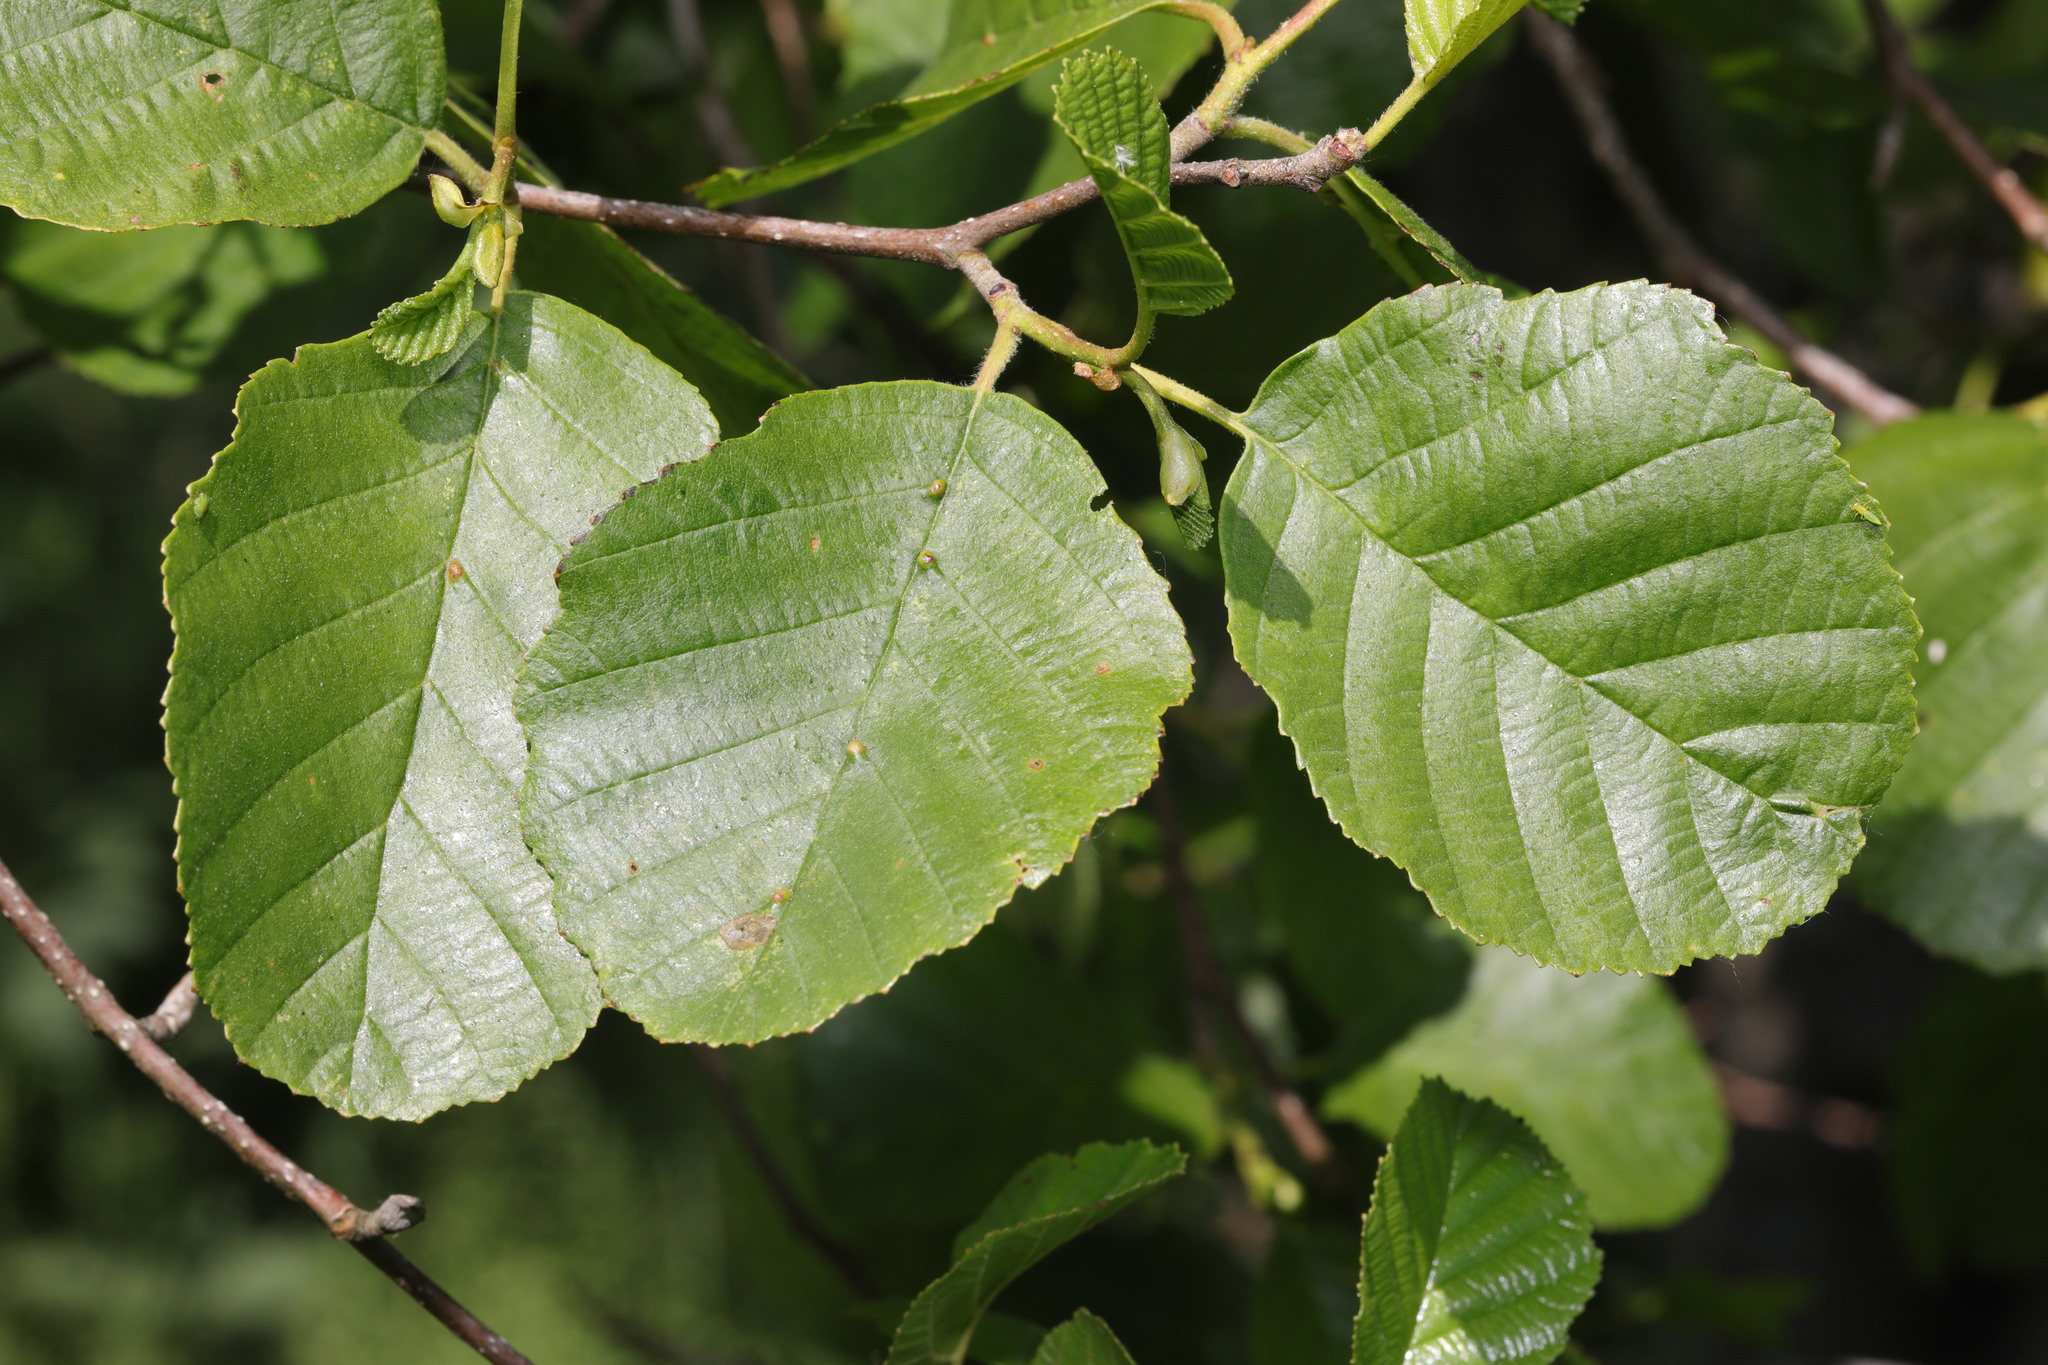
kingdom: Plantae
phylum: Tracheophyta
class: Magnoliopsida
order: Fagales
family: Betulaceae
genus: Alnus
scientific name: Alnus glutinosa
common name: Black alder
